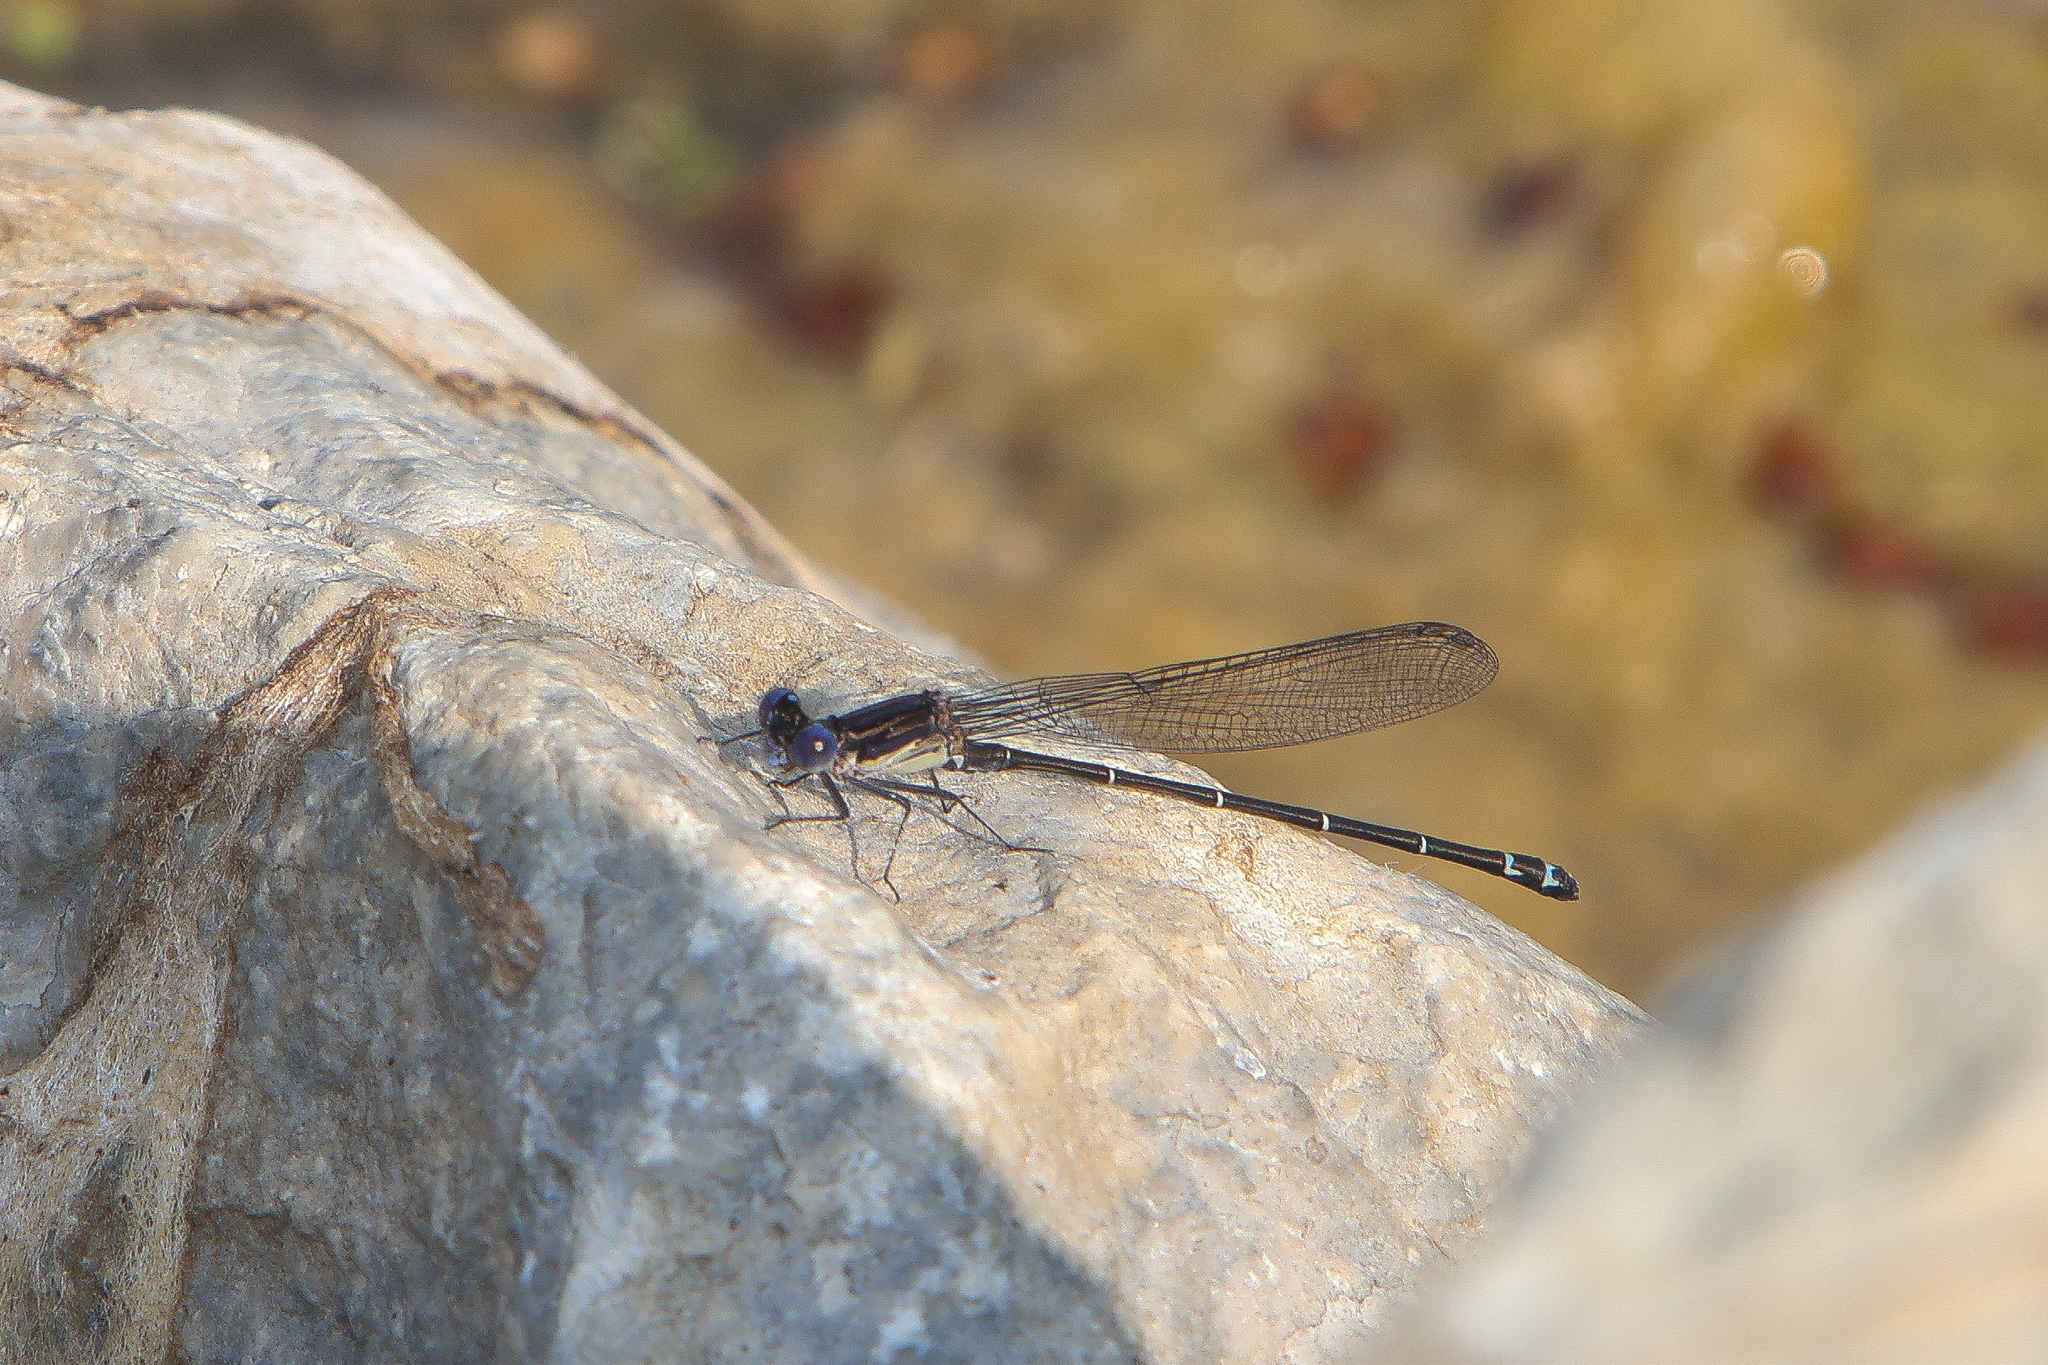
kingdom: Animalia
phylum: Arthropoda
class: Insecta
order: Odonata
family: Coenagrionidae
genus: Argia
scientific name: Argia translata
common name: Dusky dancer
